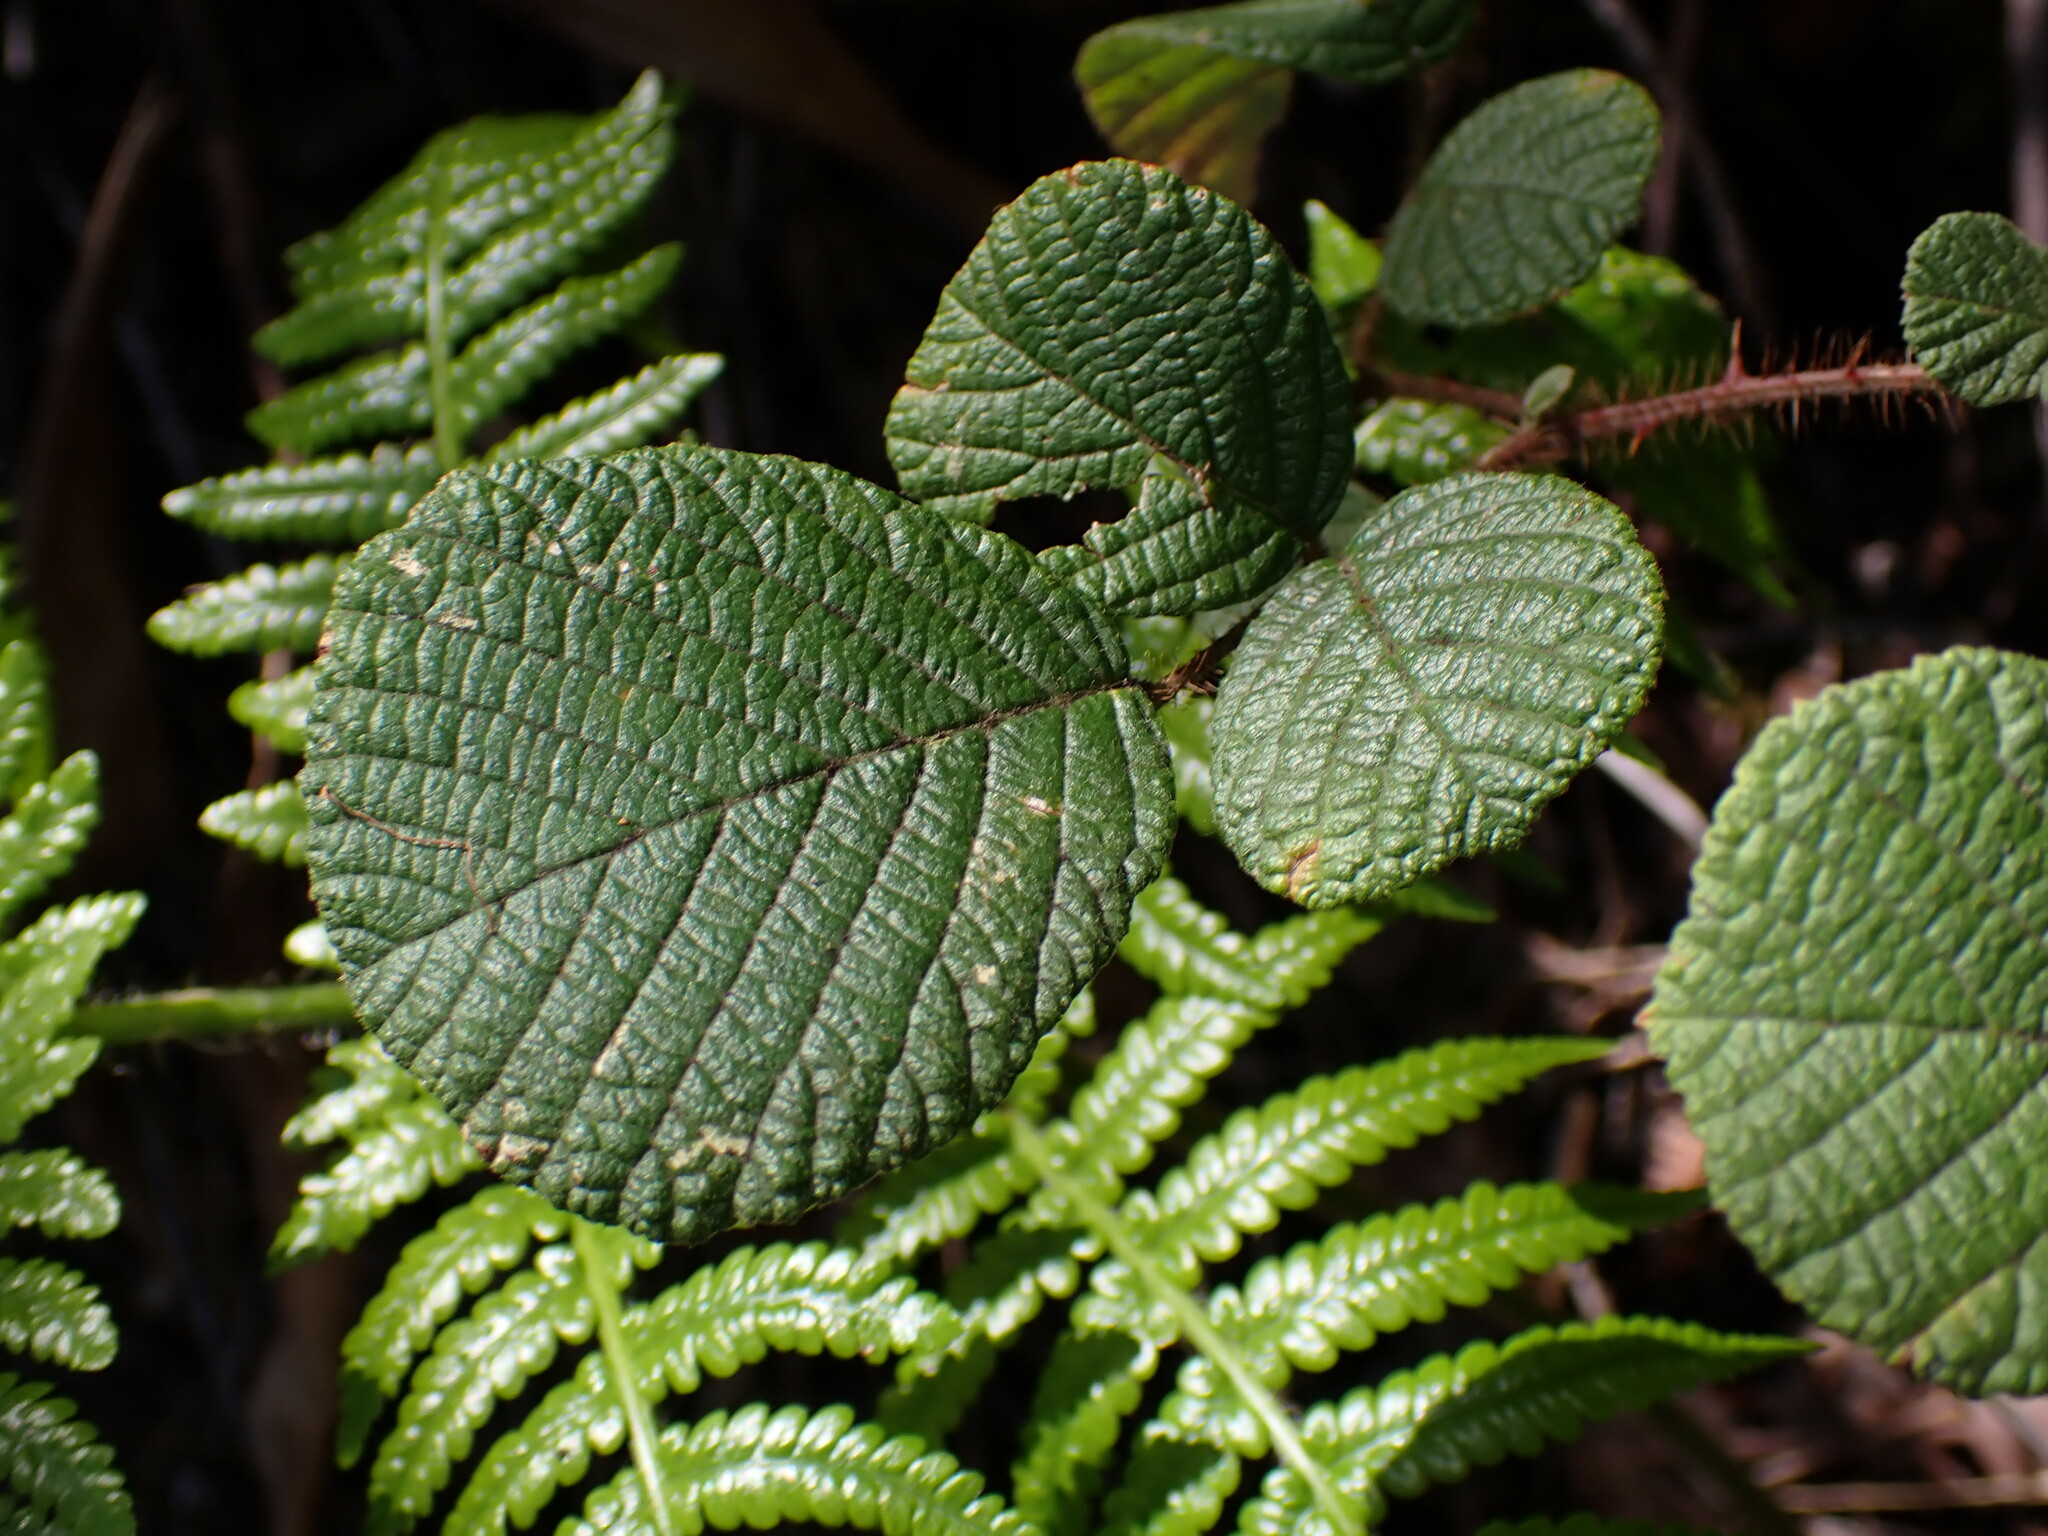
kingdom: Plantae
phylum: Tracheophyta
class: Magnoliopsida
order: Rosales
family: Rosaceae
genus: Rubus
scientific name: Rubus ellipticus
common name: Cheeseberry
